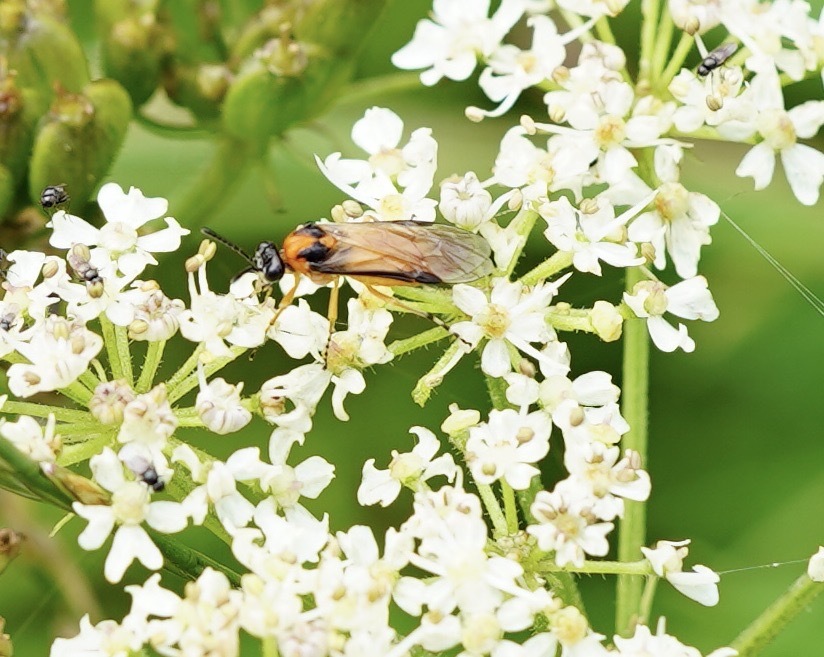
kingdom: Animalia
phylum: Arthropoda
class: Insecta
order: Hymenoptera
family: Tenthredinidae
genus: Athalia
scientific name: Athalia rosae
